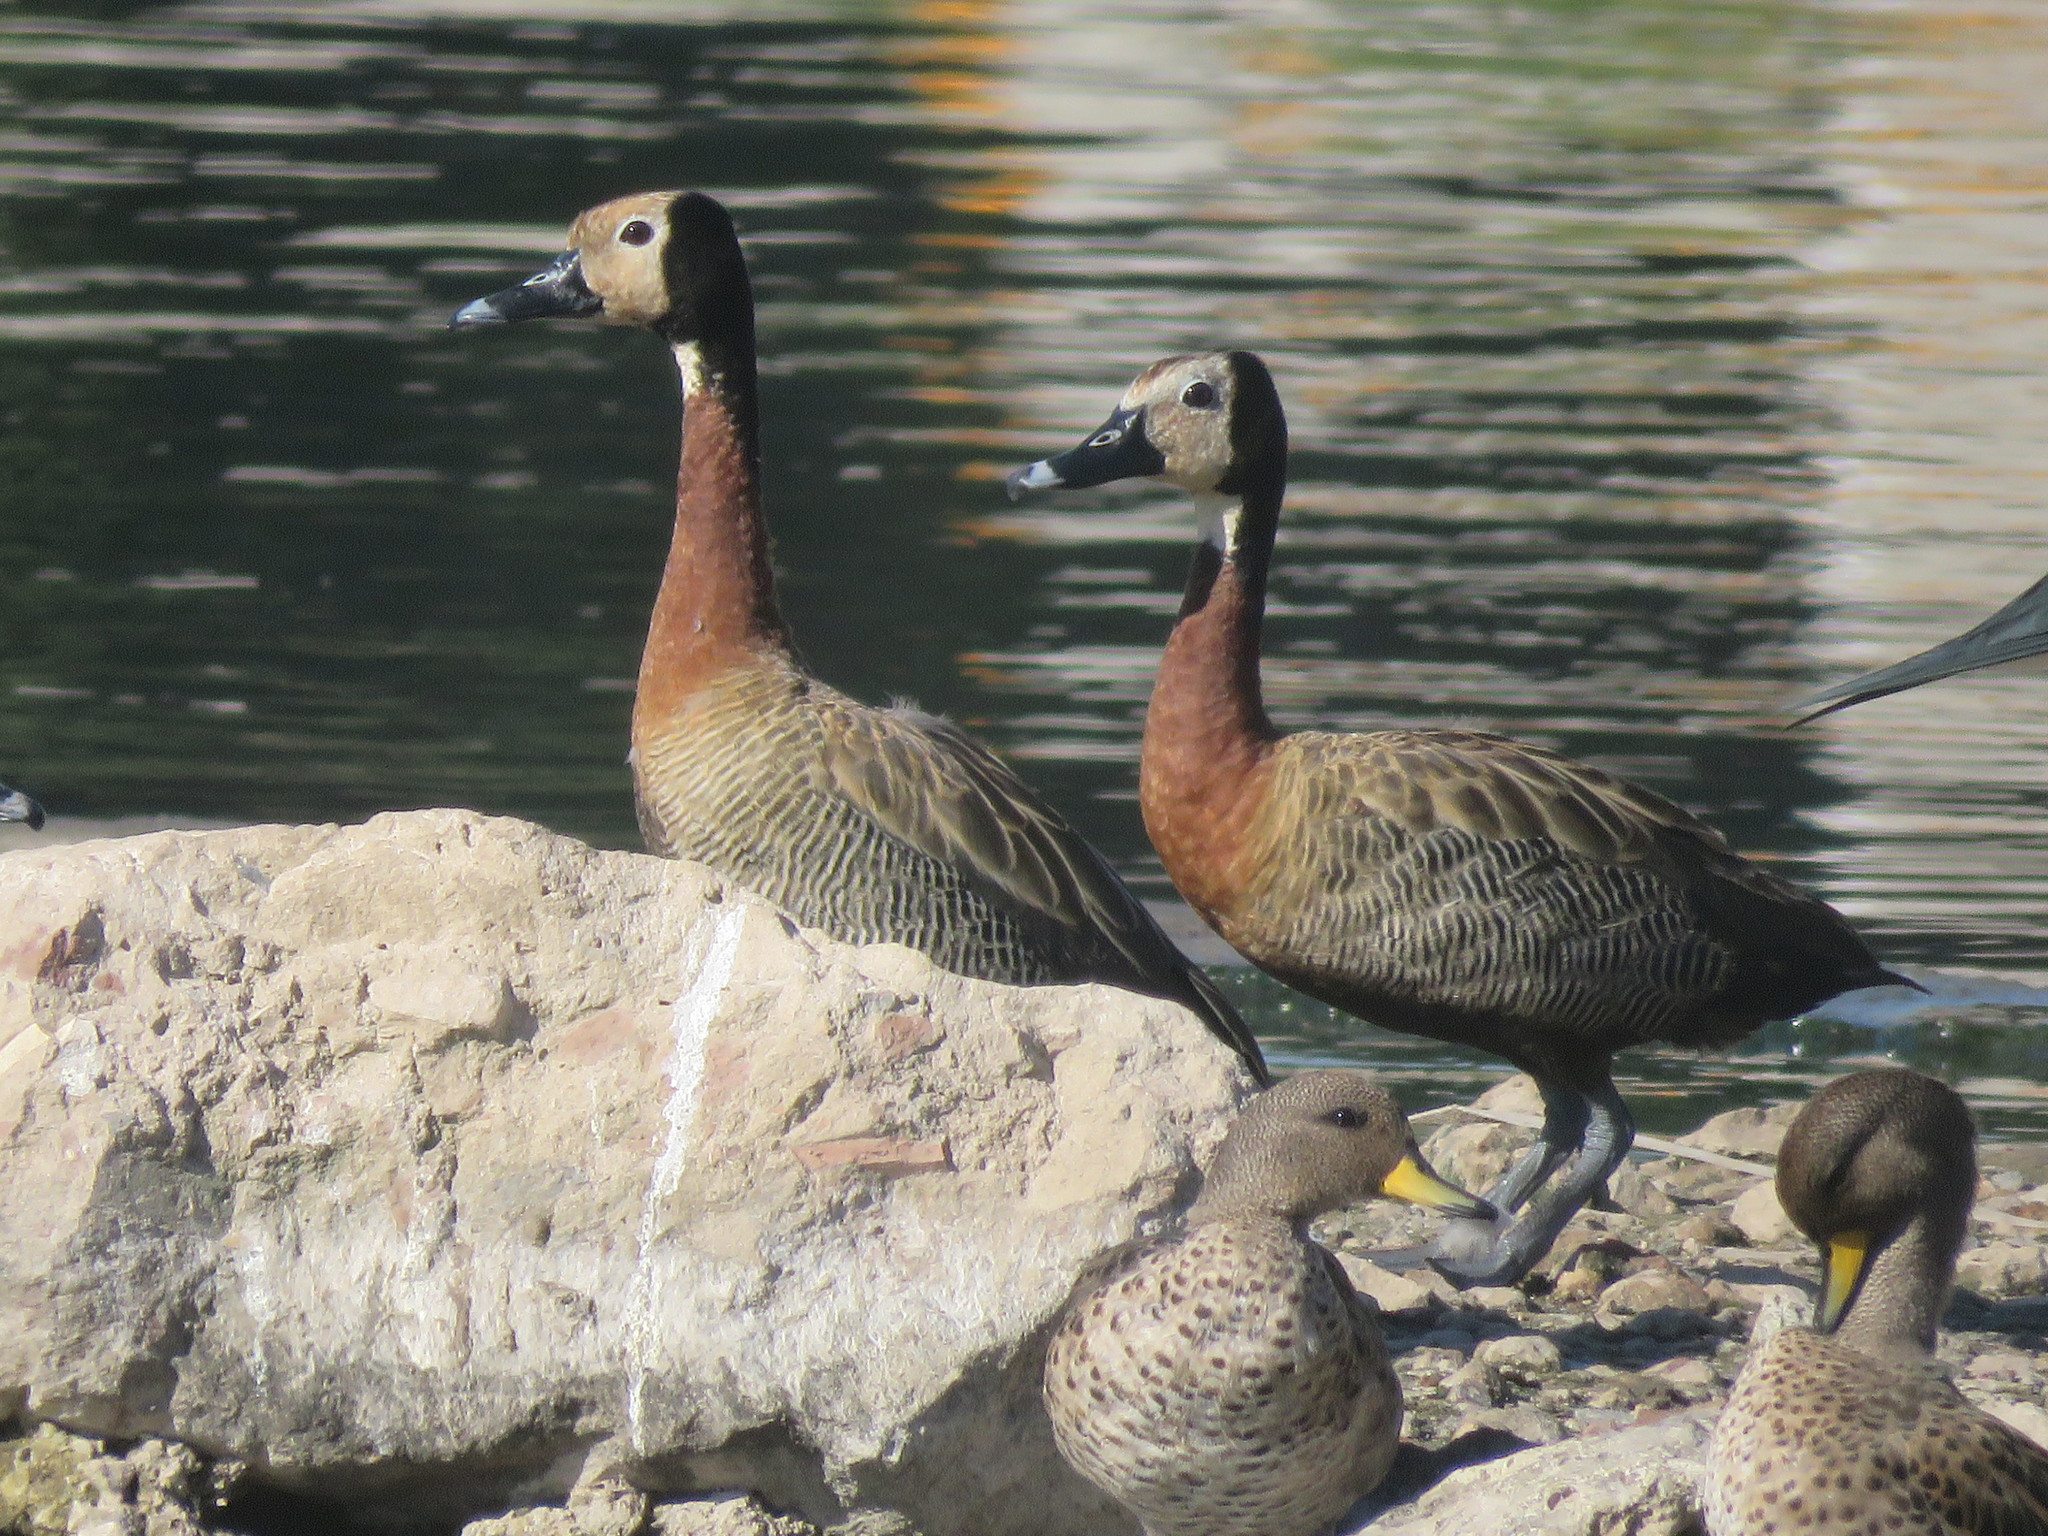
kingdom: Animalia
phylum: Chordata
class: Aves
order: Anseriformes
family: Anatidae
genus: Dendrocygna
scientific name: Dendrocygna viduata
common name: White-faced whistling duck
